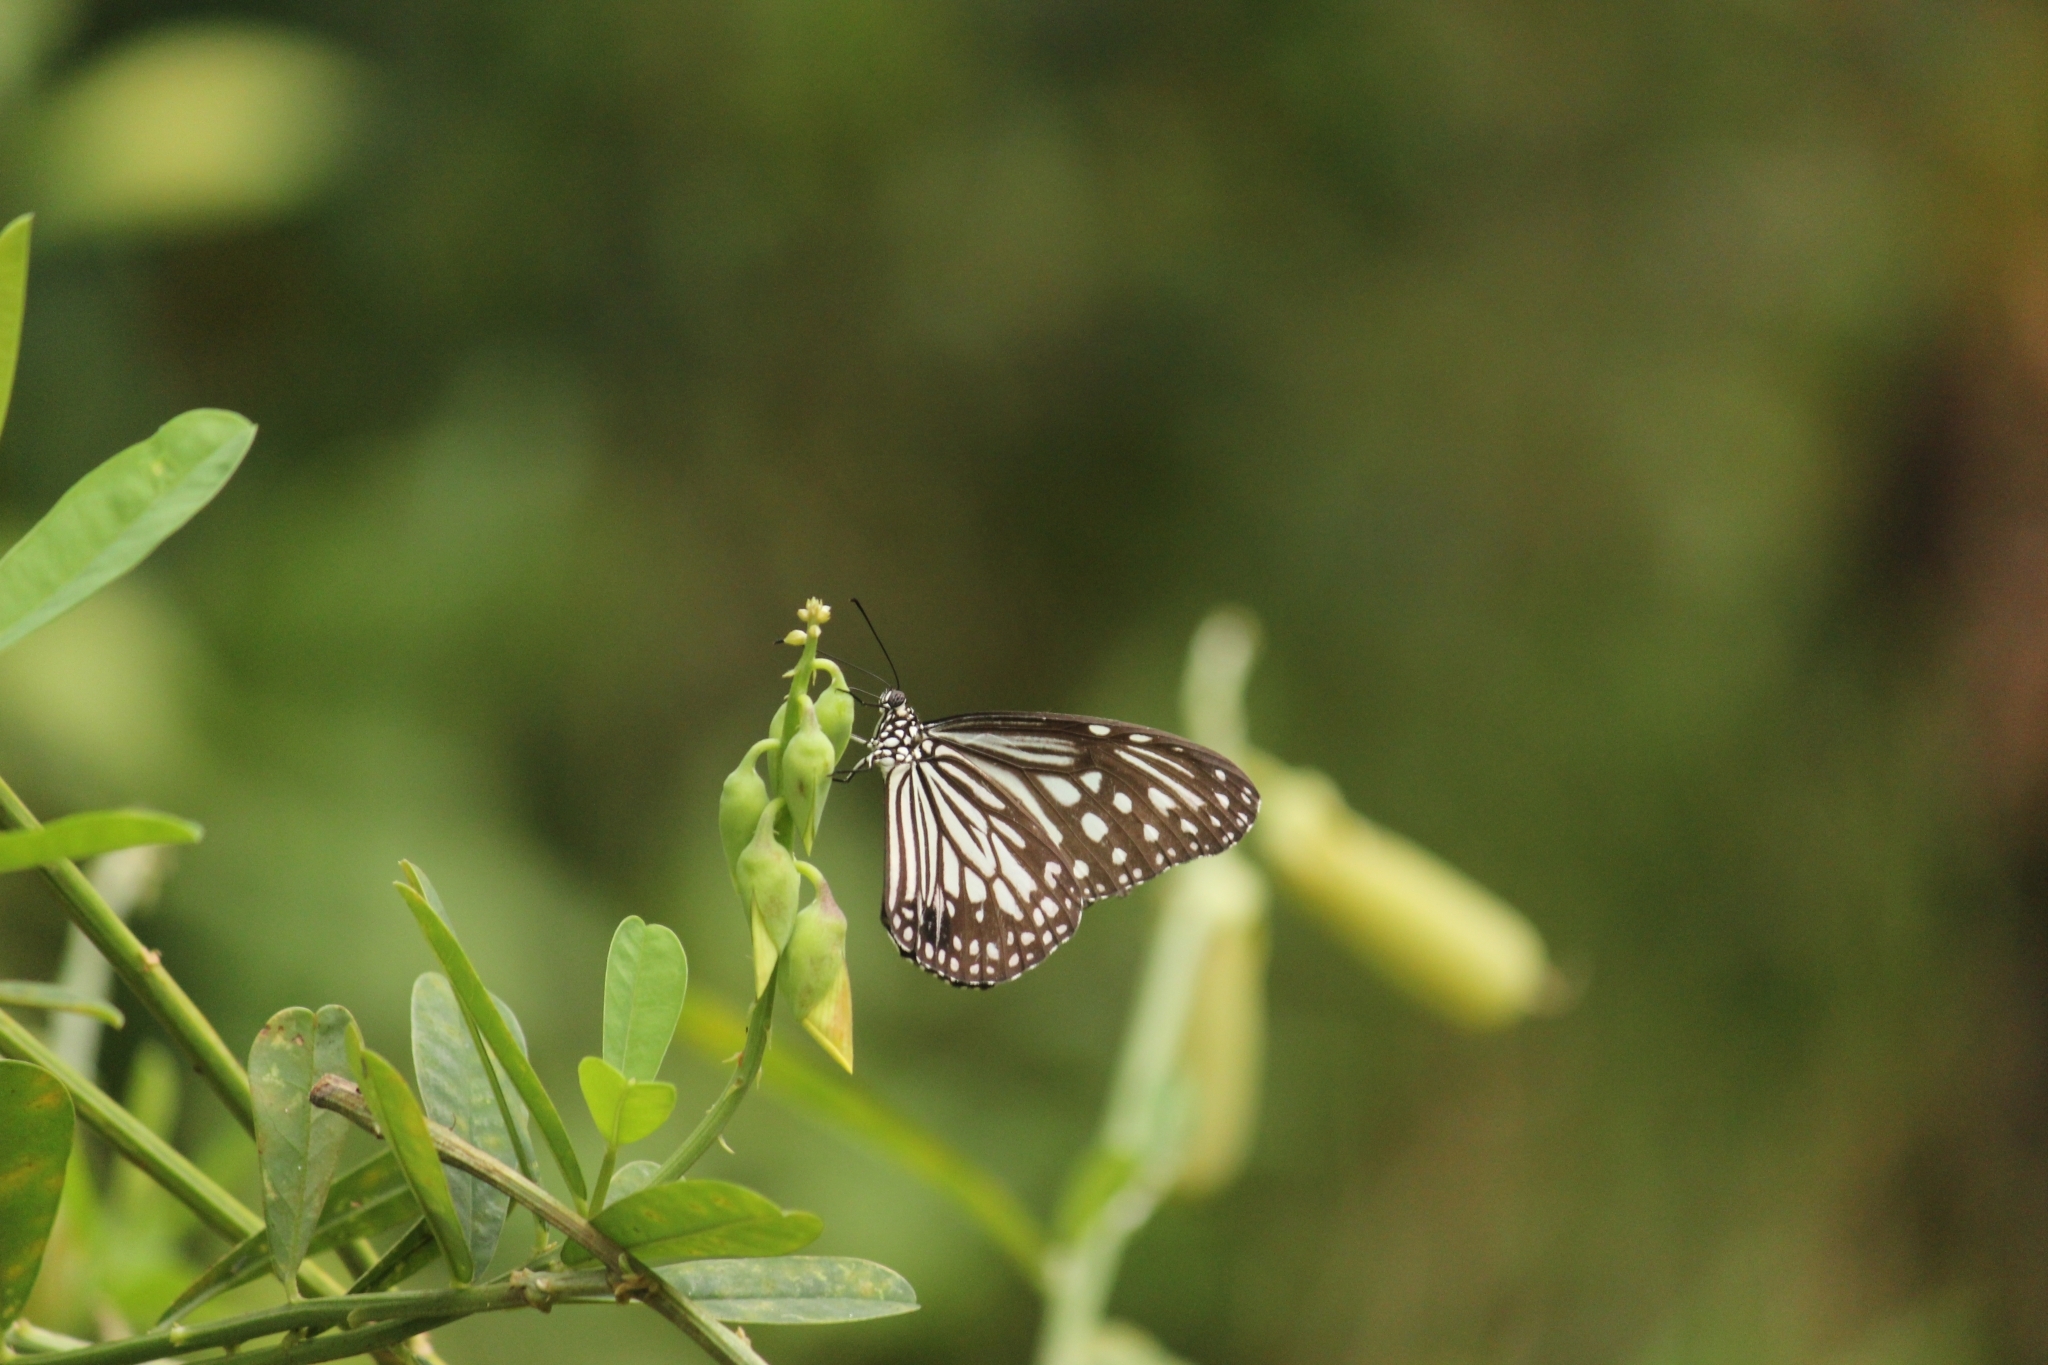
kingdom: Animalia
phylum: Arthropoda
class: Insecta
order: Lepidoptera
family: Nymphalidae
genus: Parantica
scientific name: Parantica aglea
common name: Glassy tiger
